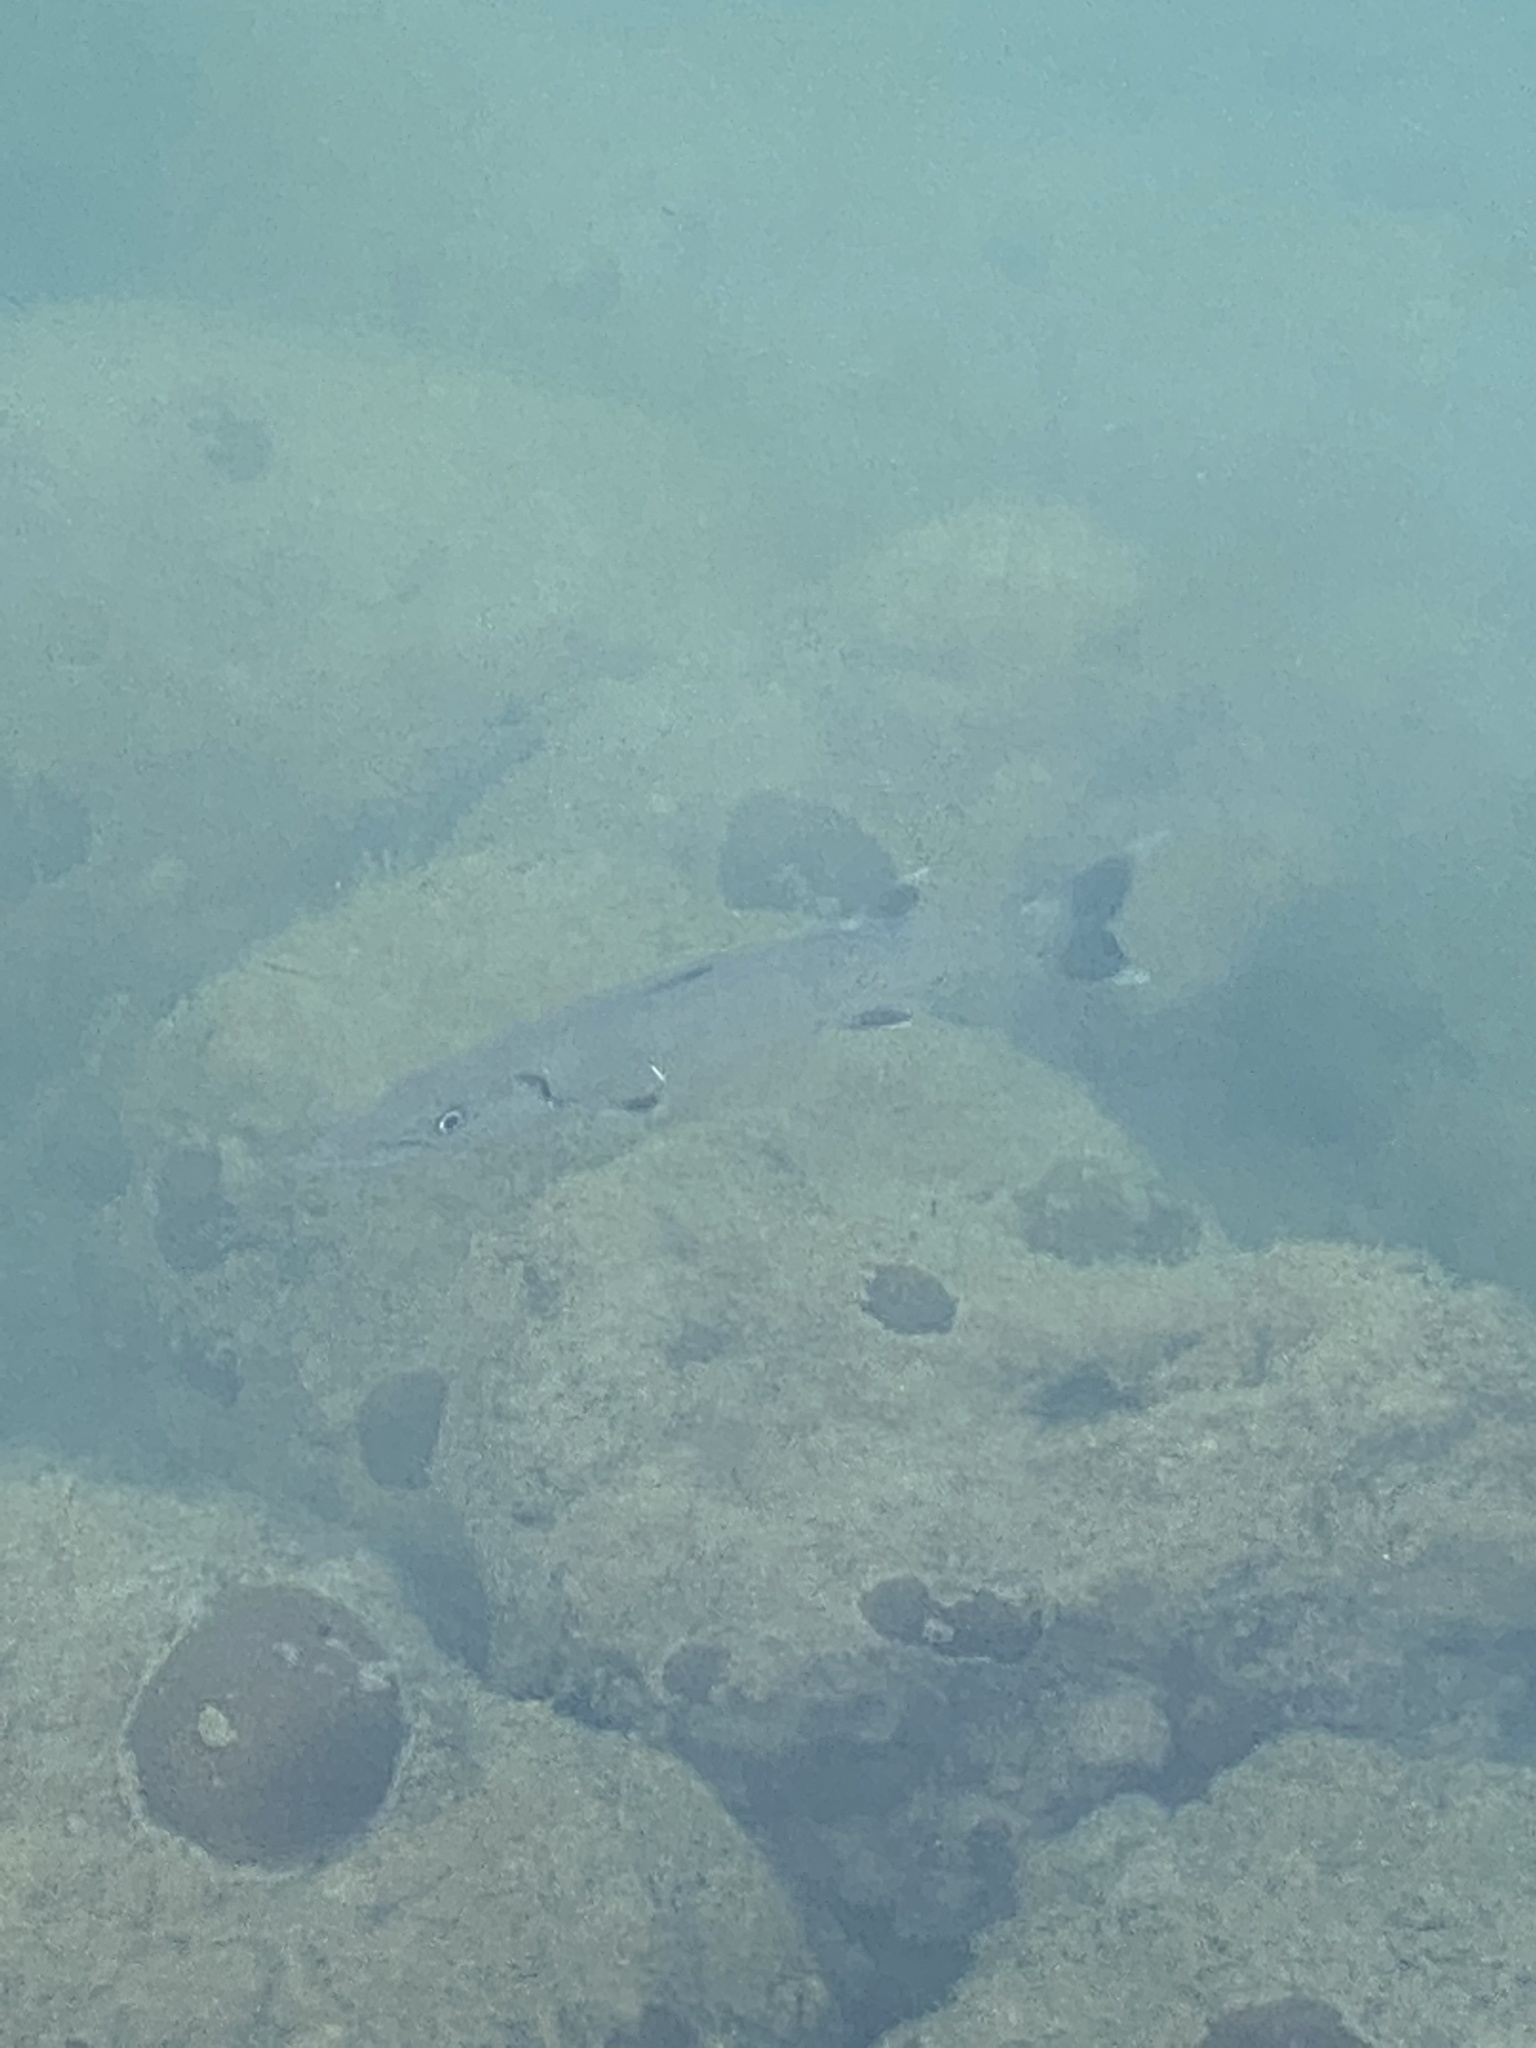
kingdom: Animalia
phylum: Chordata
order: Perciformes
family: Sphyraenidae
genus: Sphyraena
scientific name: Sphyraena barracuda
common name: Great barracuda
